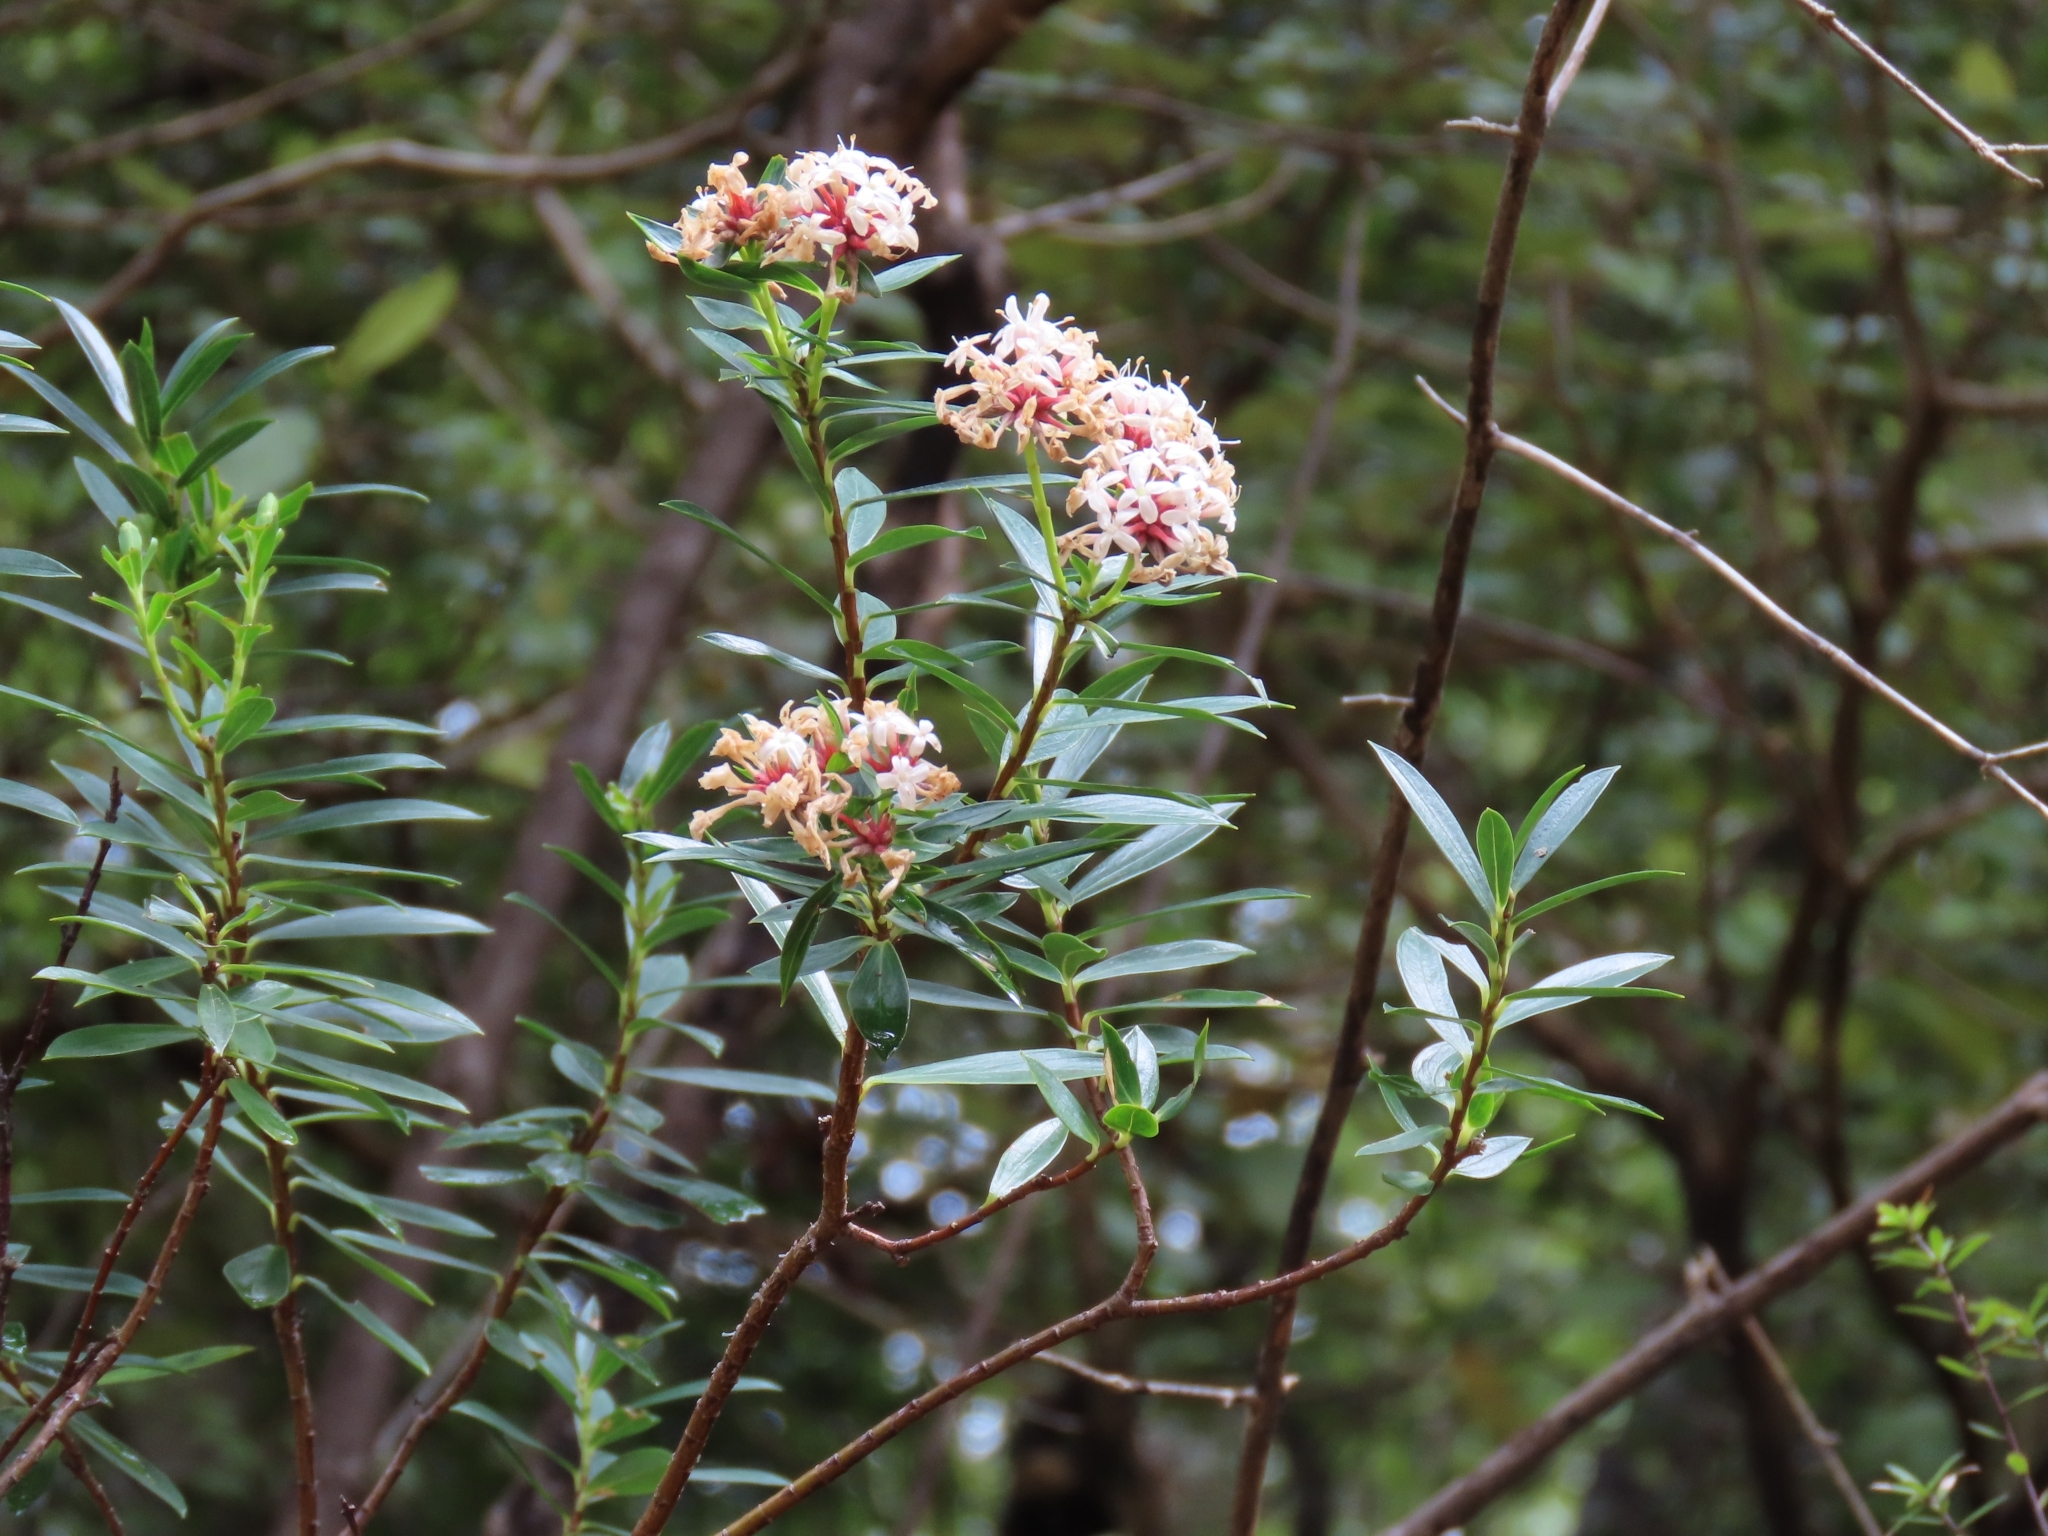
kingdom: Plantae
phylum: Tracheophyta
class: Magnoliopsida
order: Malvales
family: Thymelaeaceae
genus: Pimelea
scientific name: Pimelea gnidia
